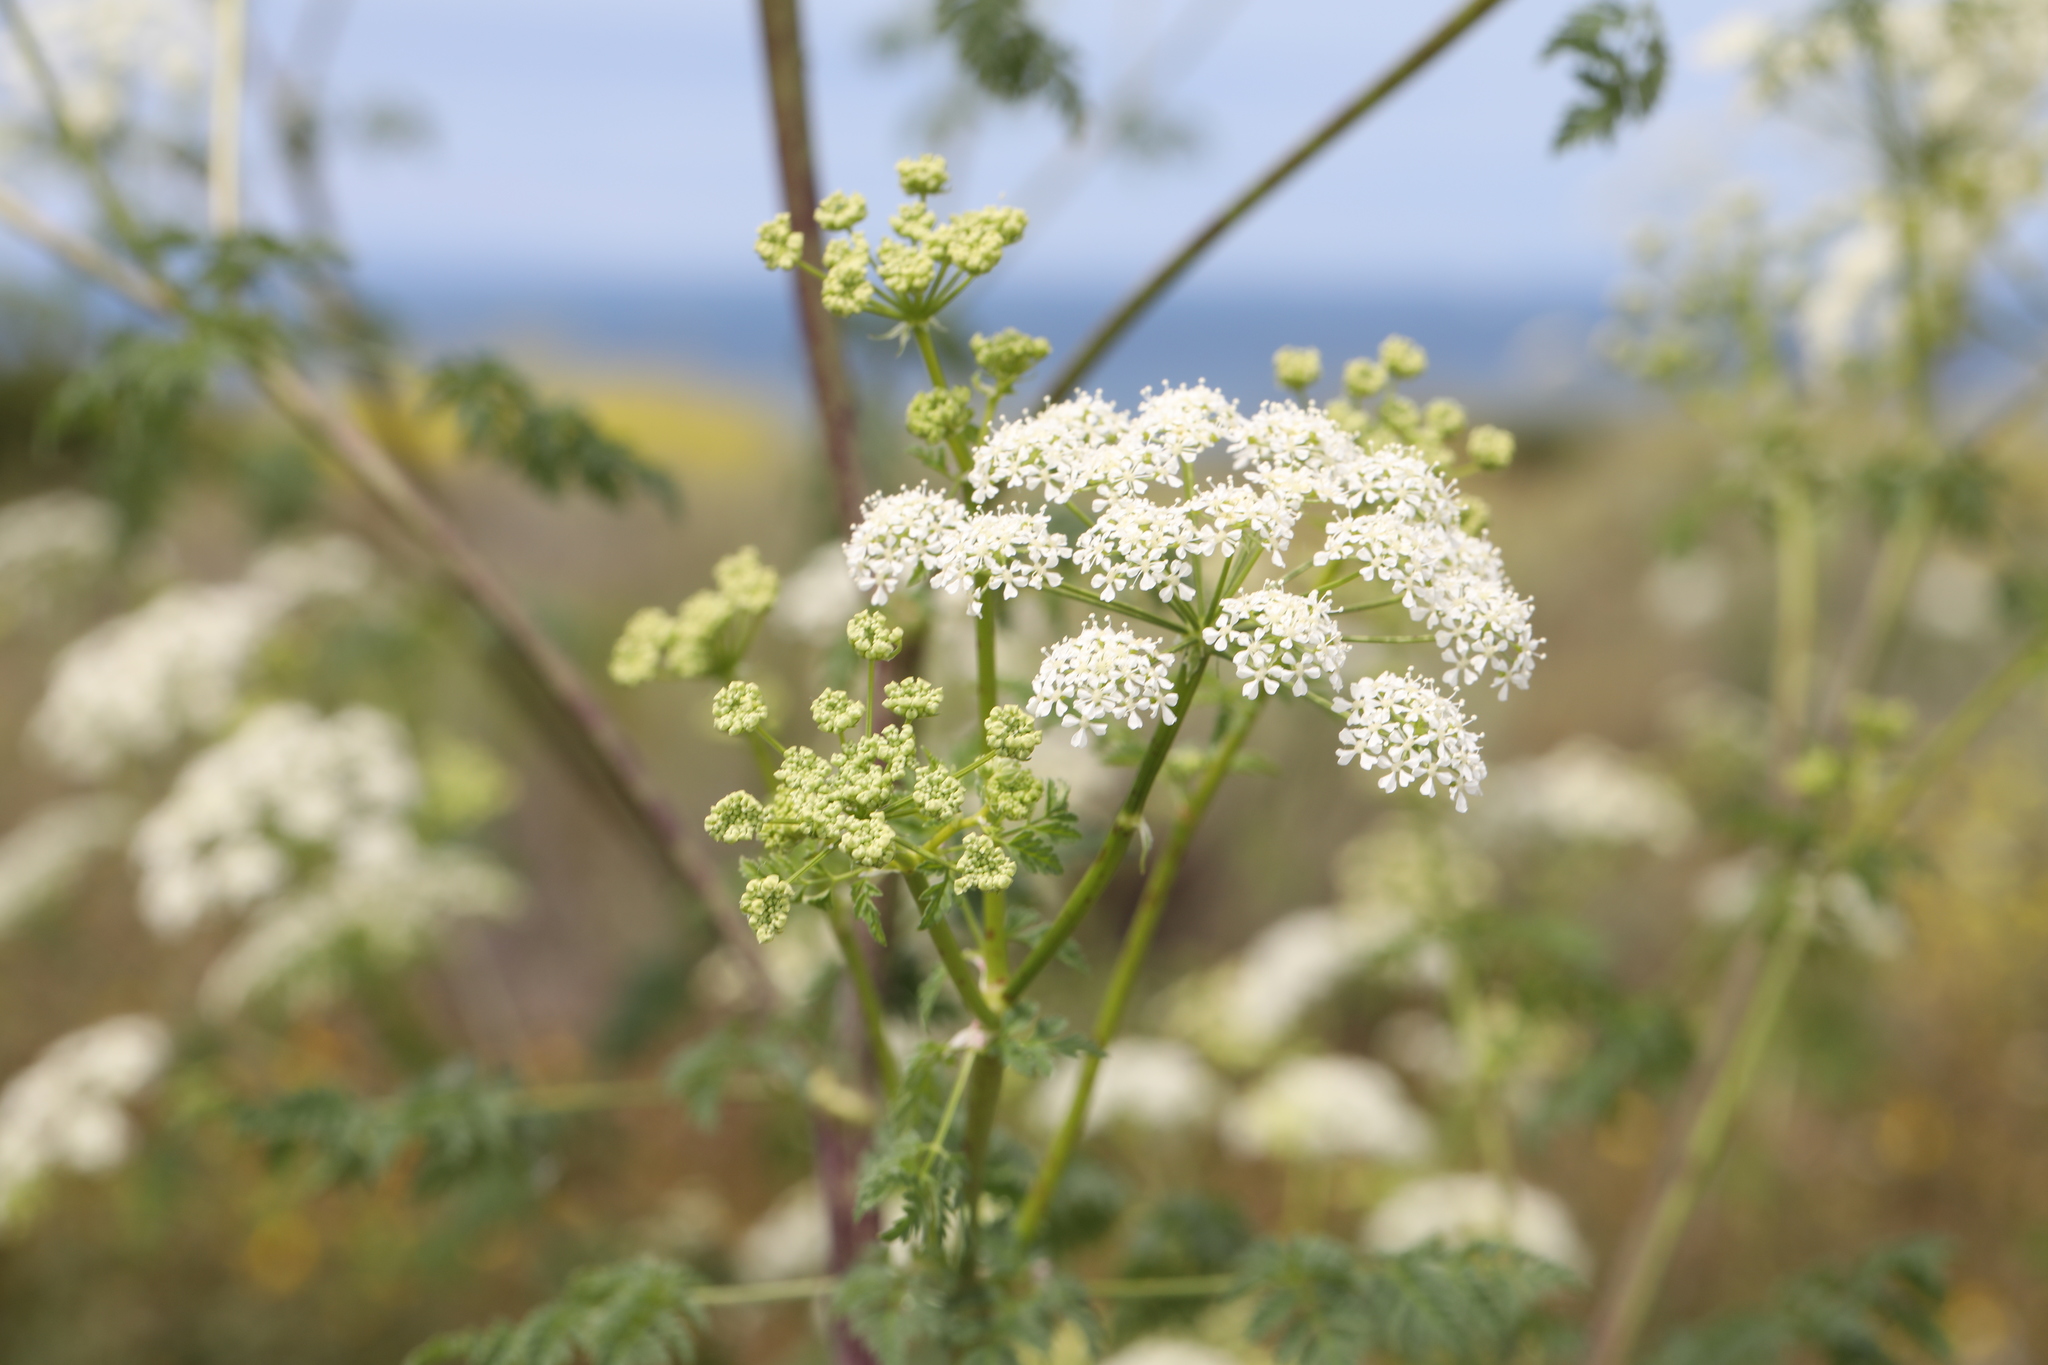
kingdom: Plantae
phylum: Tracheophyta
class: Magnoliopsida
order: Apiales
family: Apiaceae
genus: Conium
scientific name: Conium maculatum
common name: Hemlock
